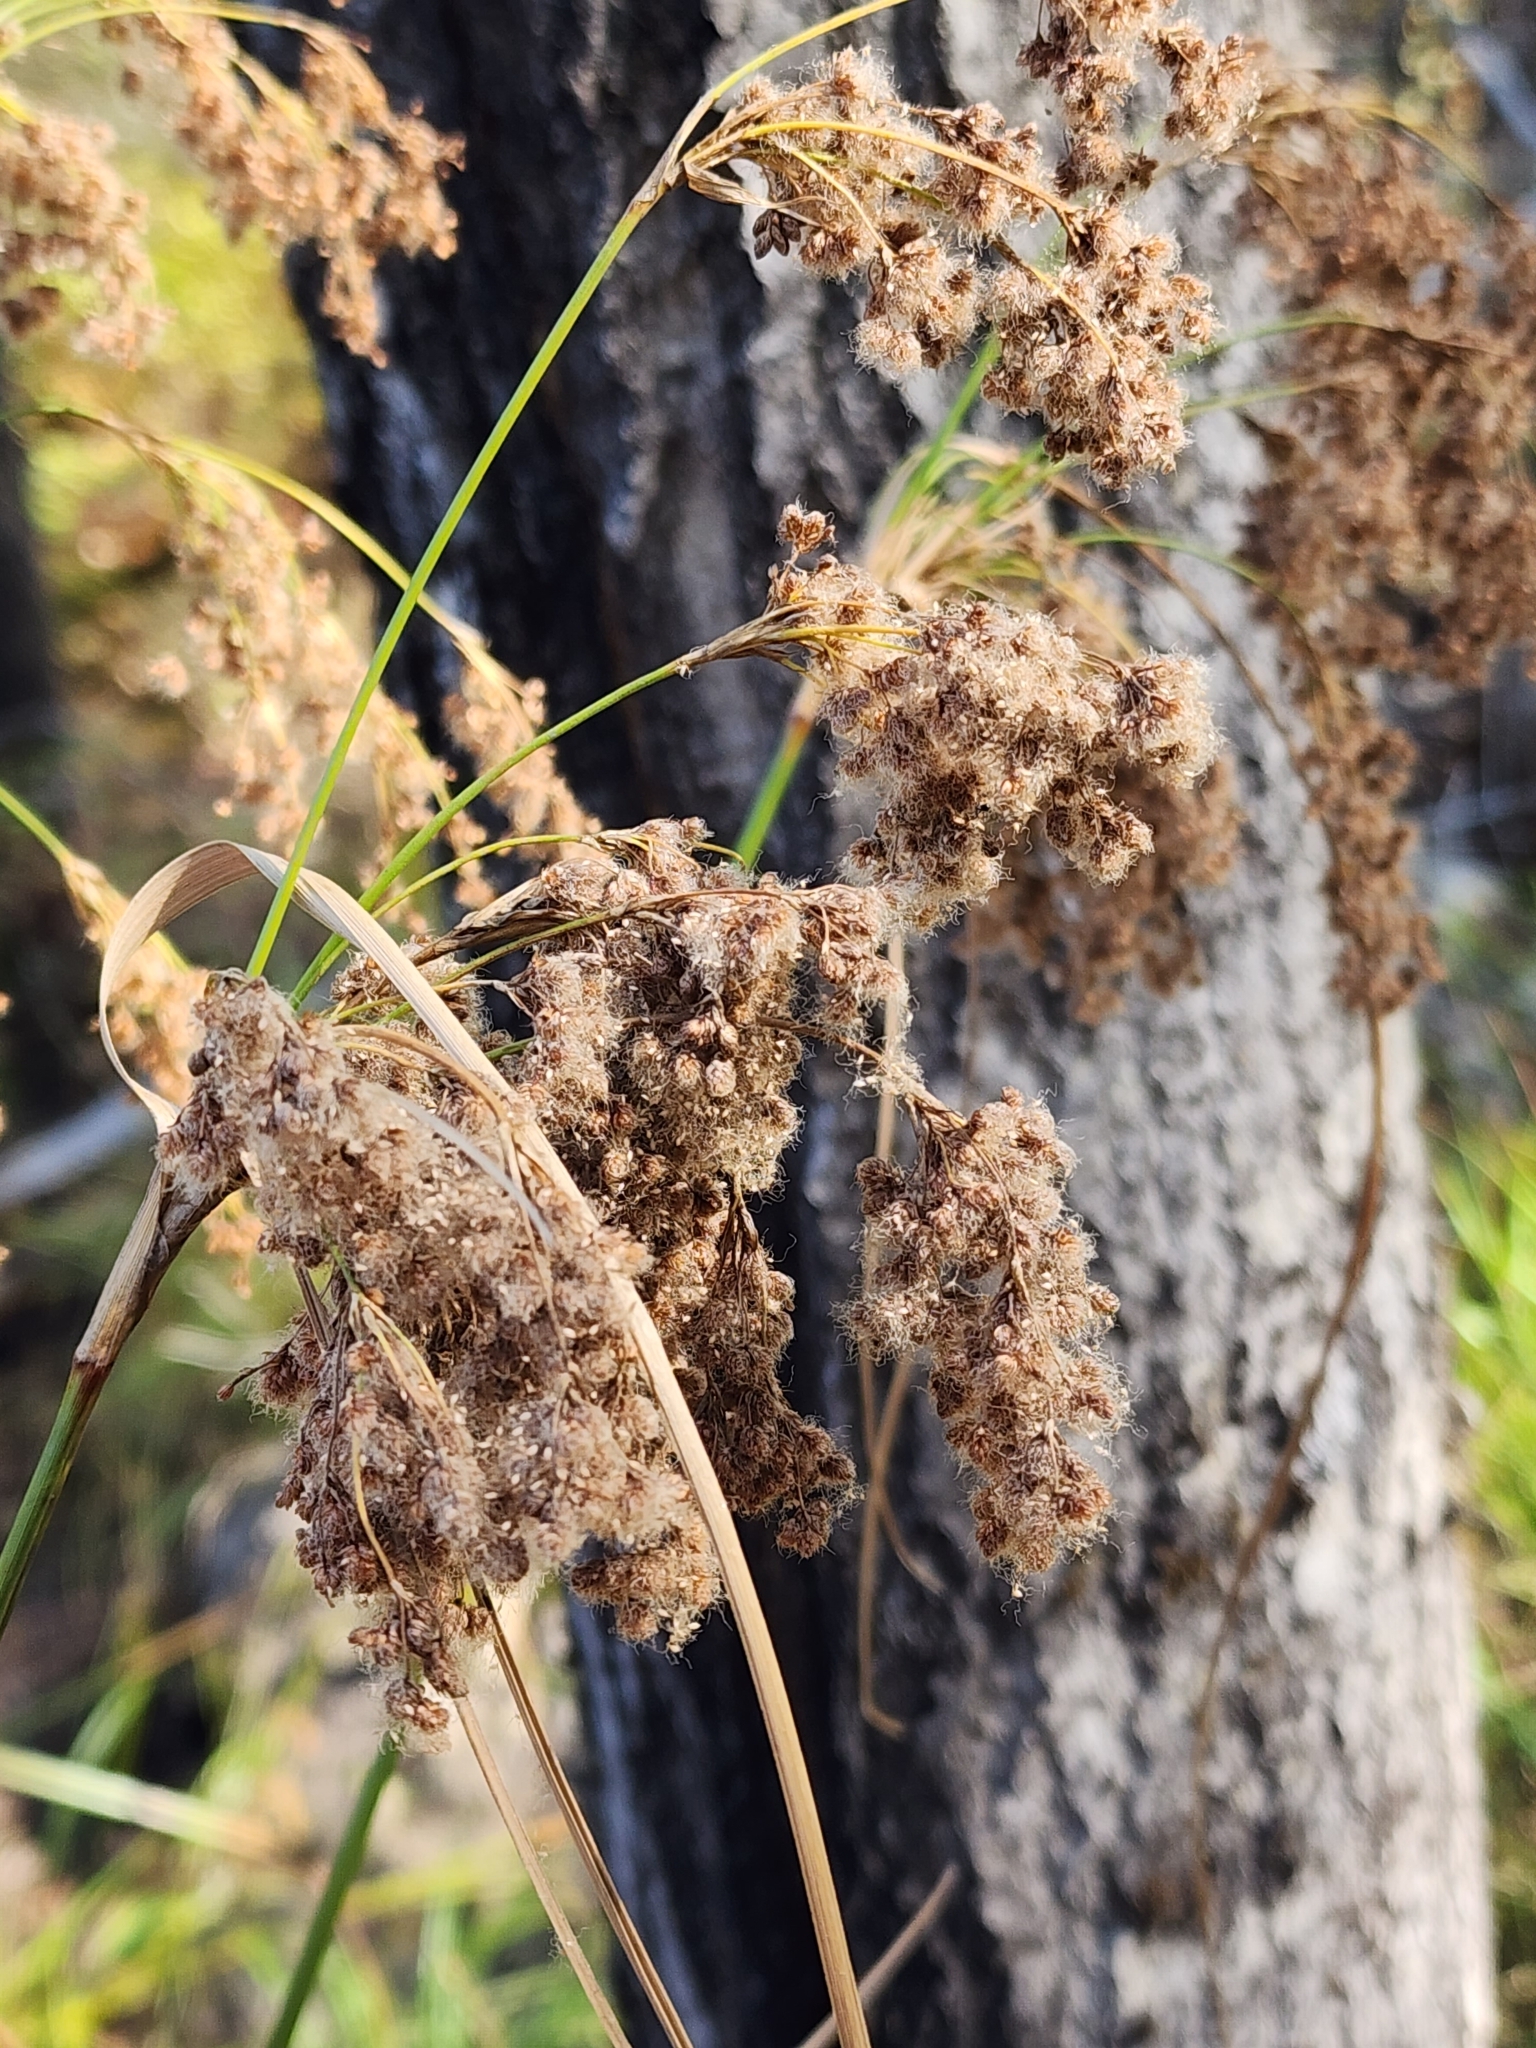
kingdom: Plantae
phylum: Tracheophyta
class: Liliopsida
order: Poales
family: Cyperaceae
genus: Scirpus
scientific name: Scirpus cyperinus
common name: Black-sheathed bulrush
